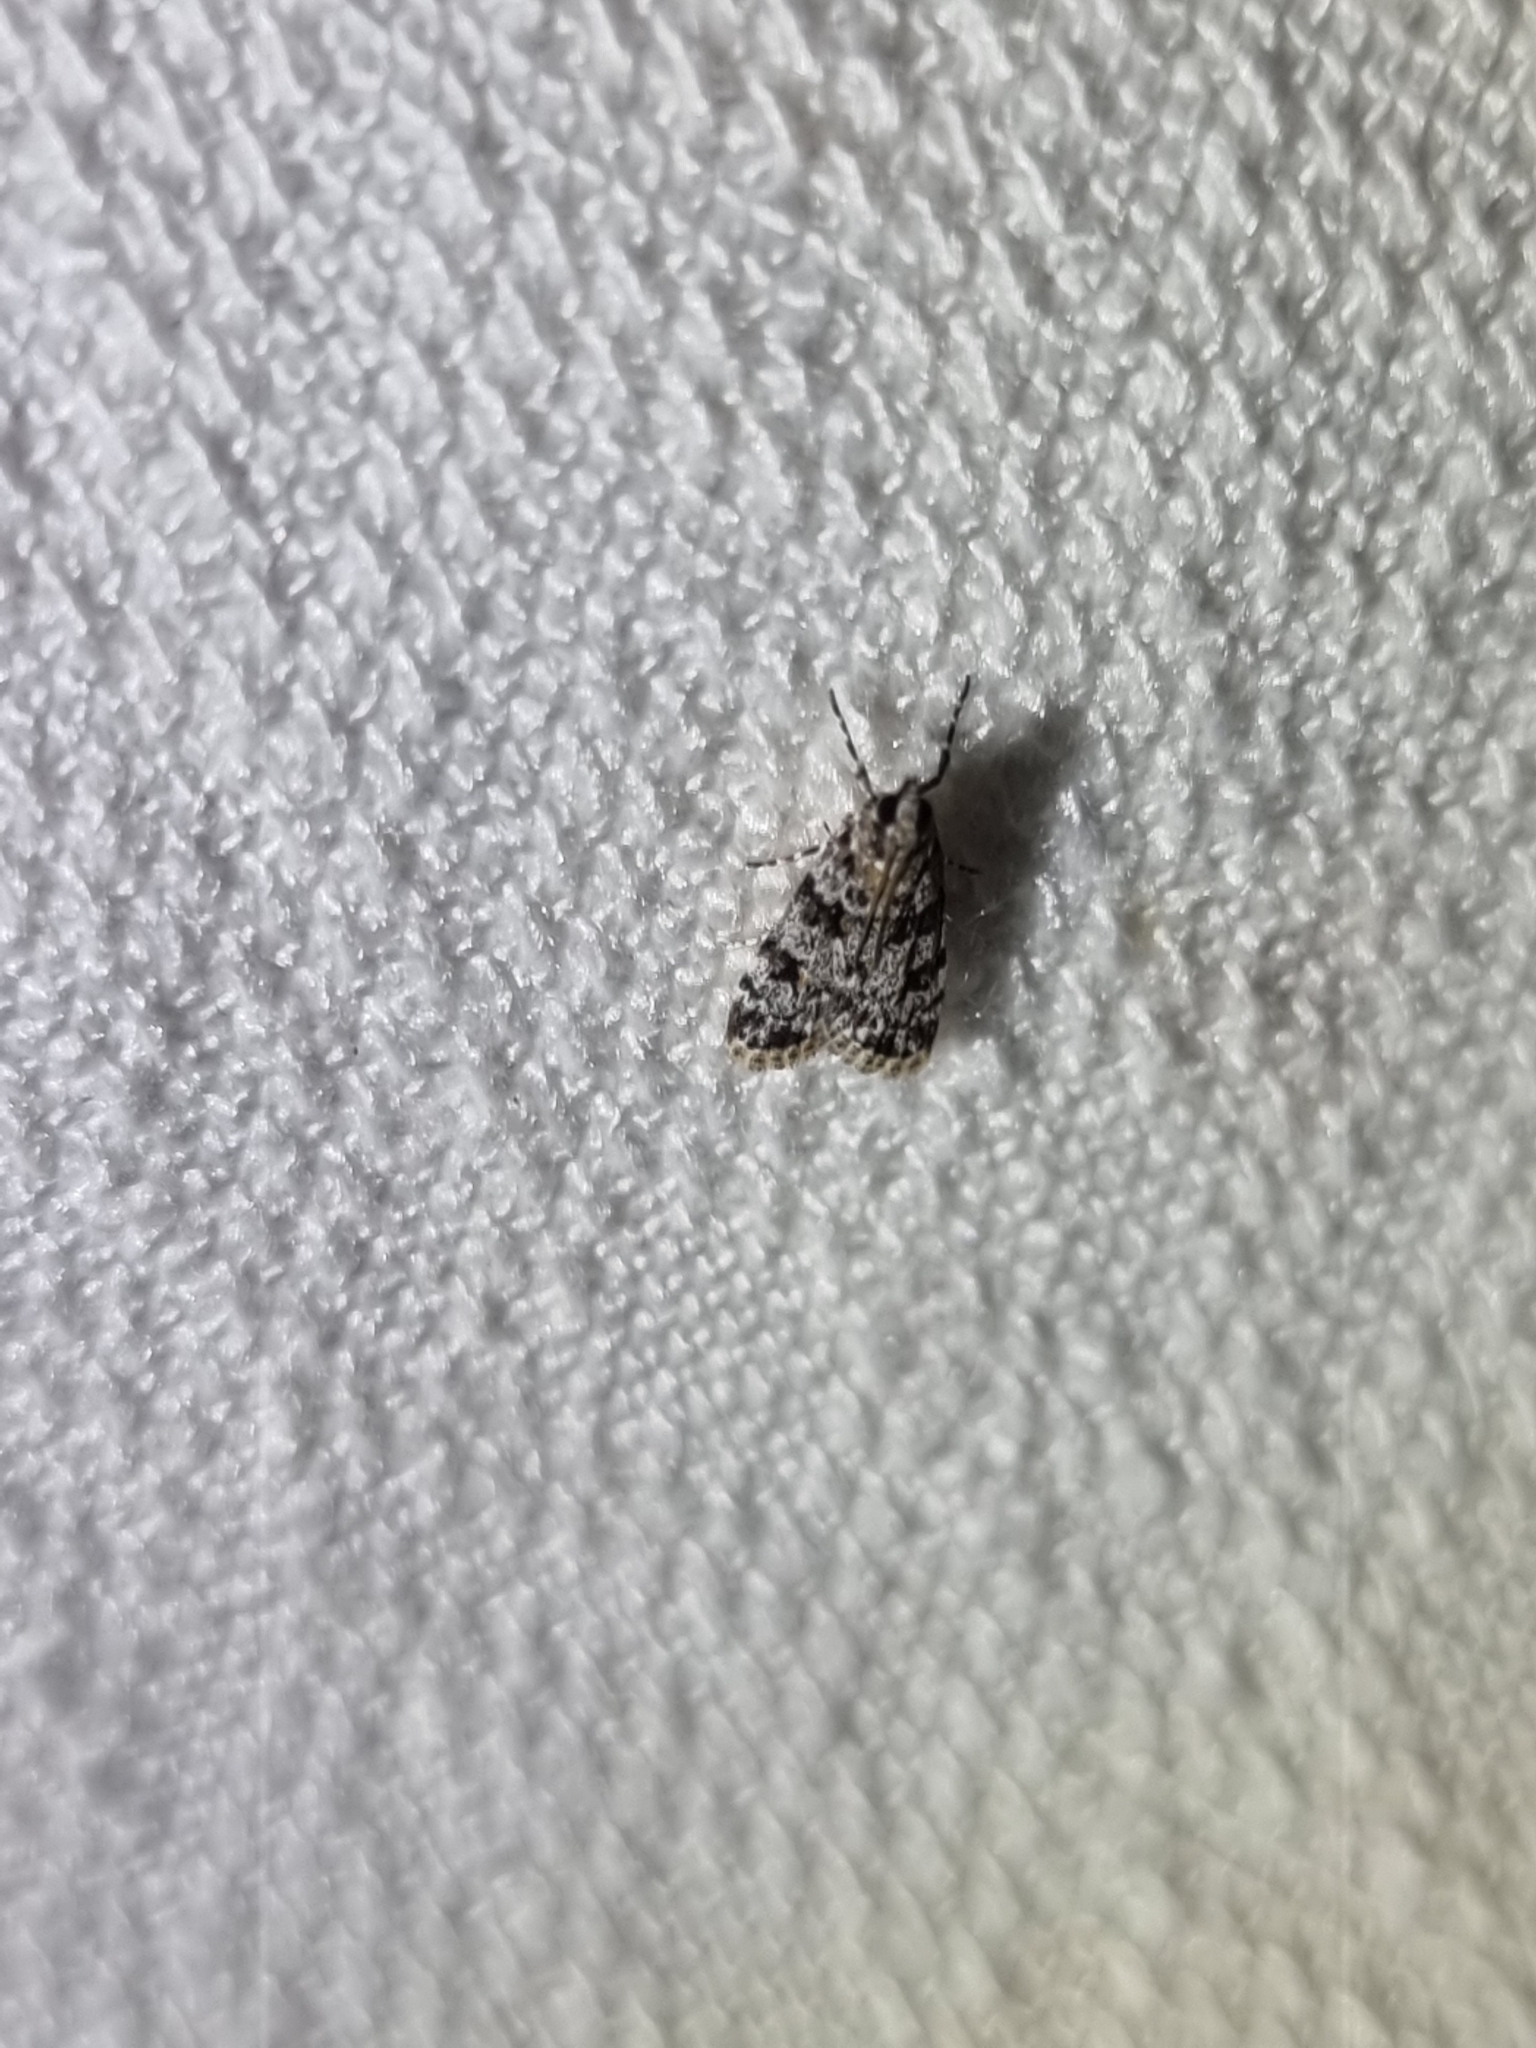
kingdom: Animalia
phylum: Arthropoda
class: Insecta
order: Lepidoptera
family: Crambidae
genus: Scoparia
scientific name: Scoparia chiasta
